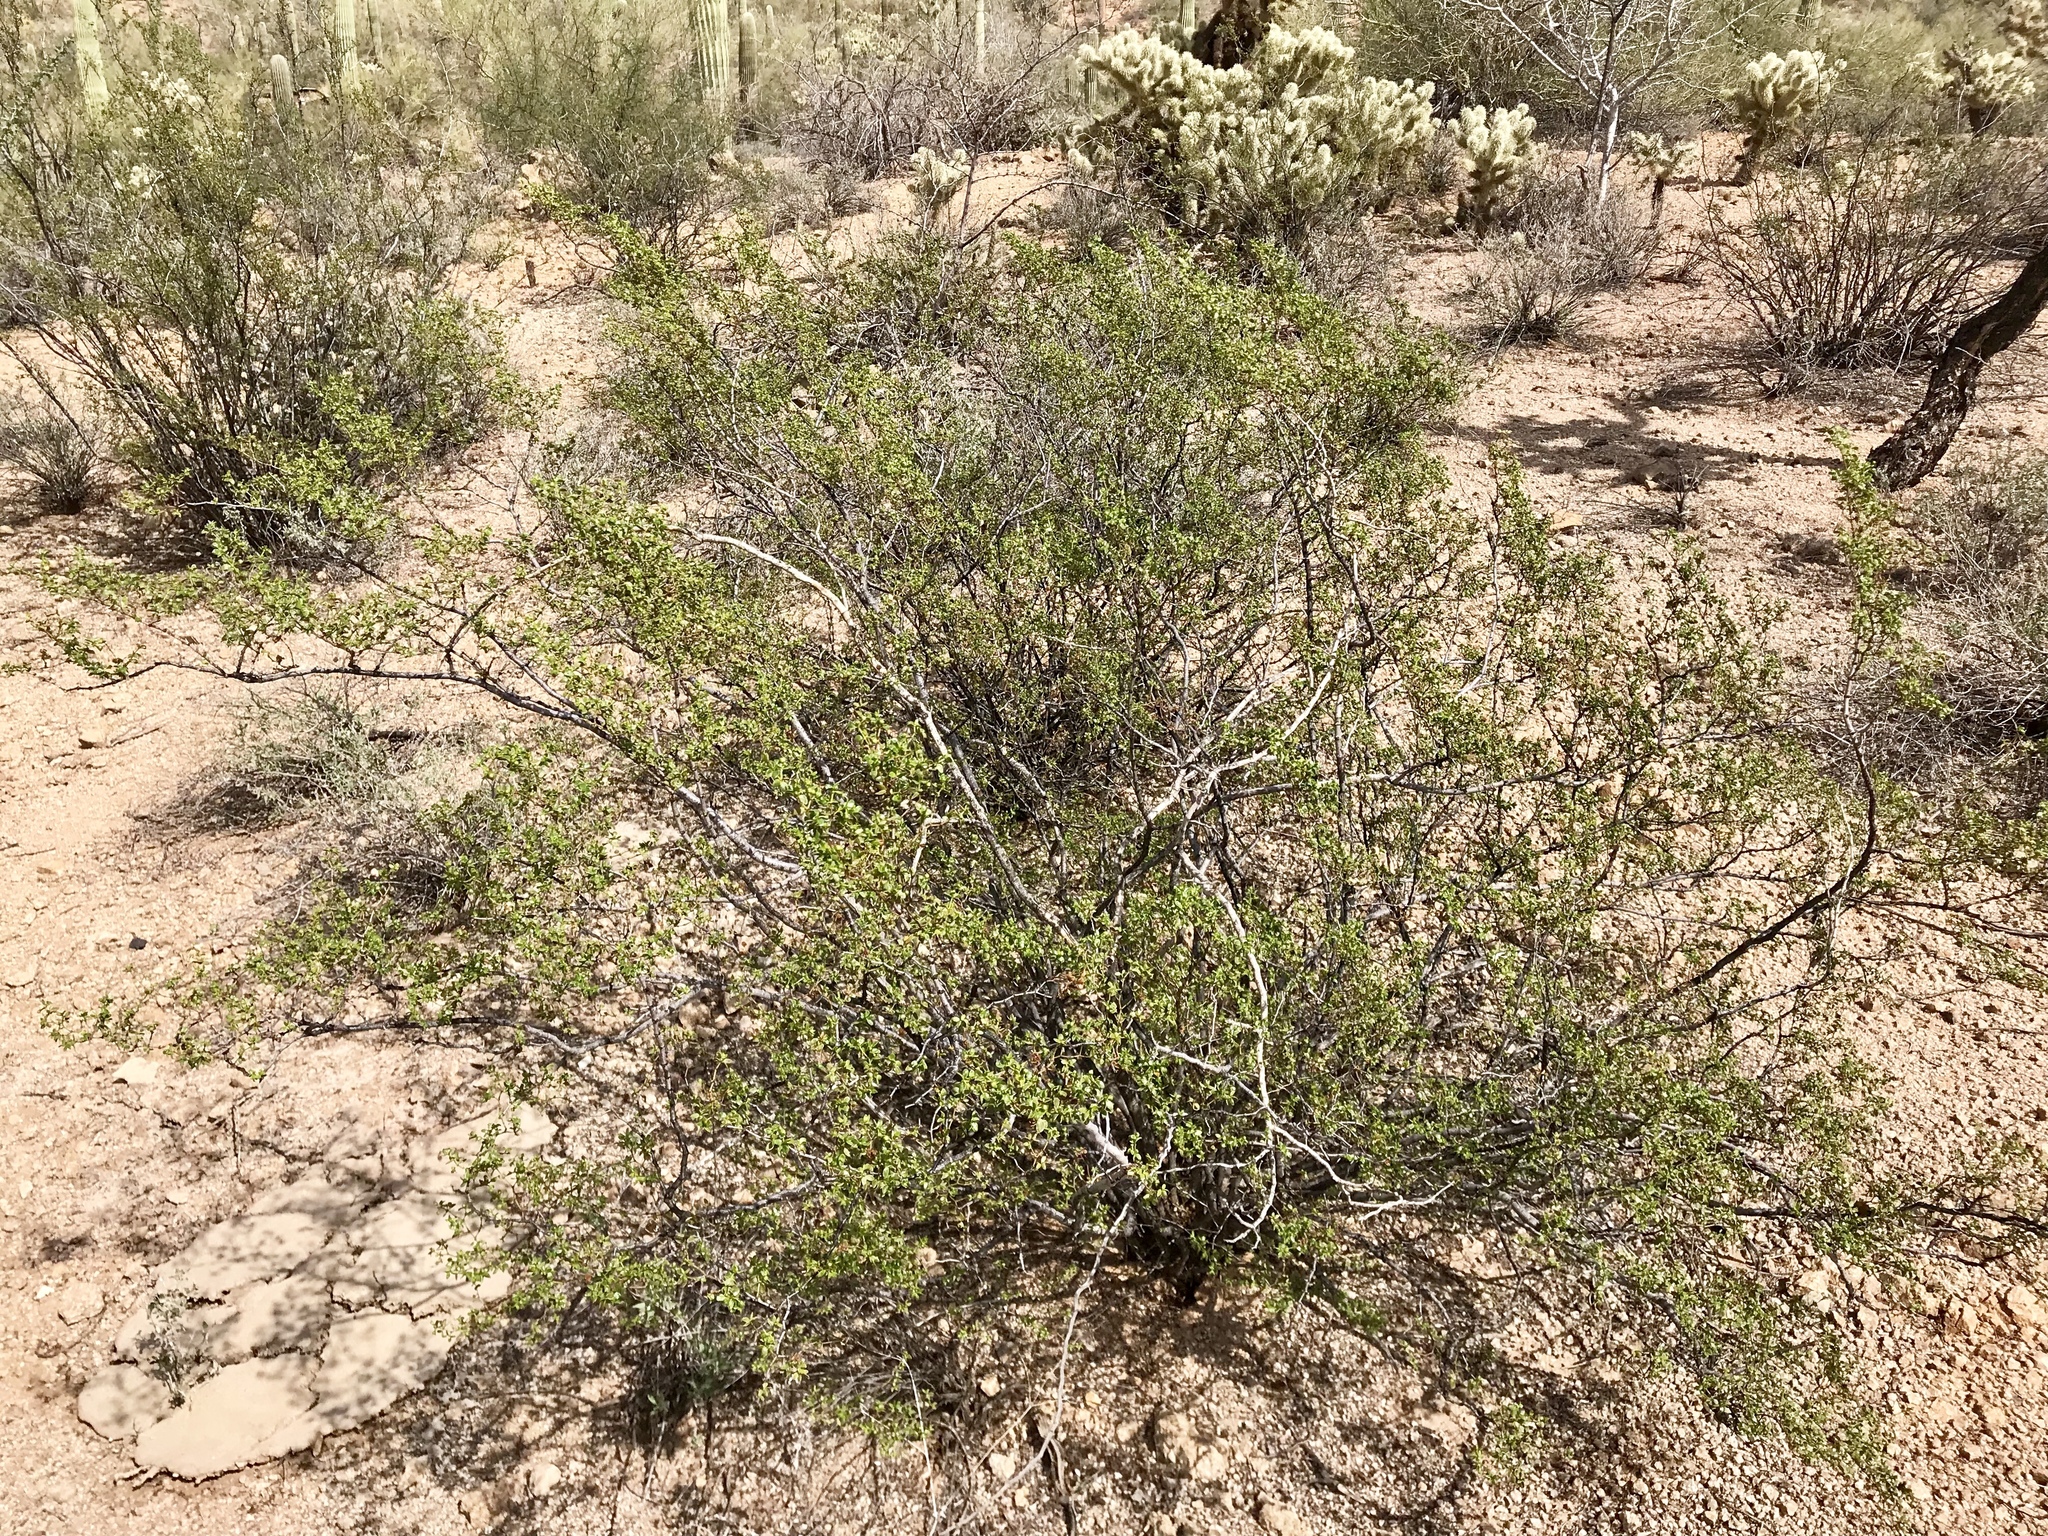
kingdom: Plantae
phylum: Tracheophyta
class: Magnoliopsida
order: Zygophyllales
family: Zygophyllaceae
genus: Larrea
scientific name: Larrea tridentata
